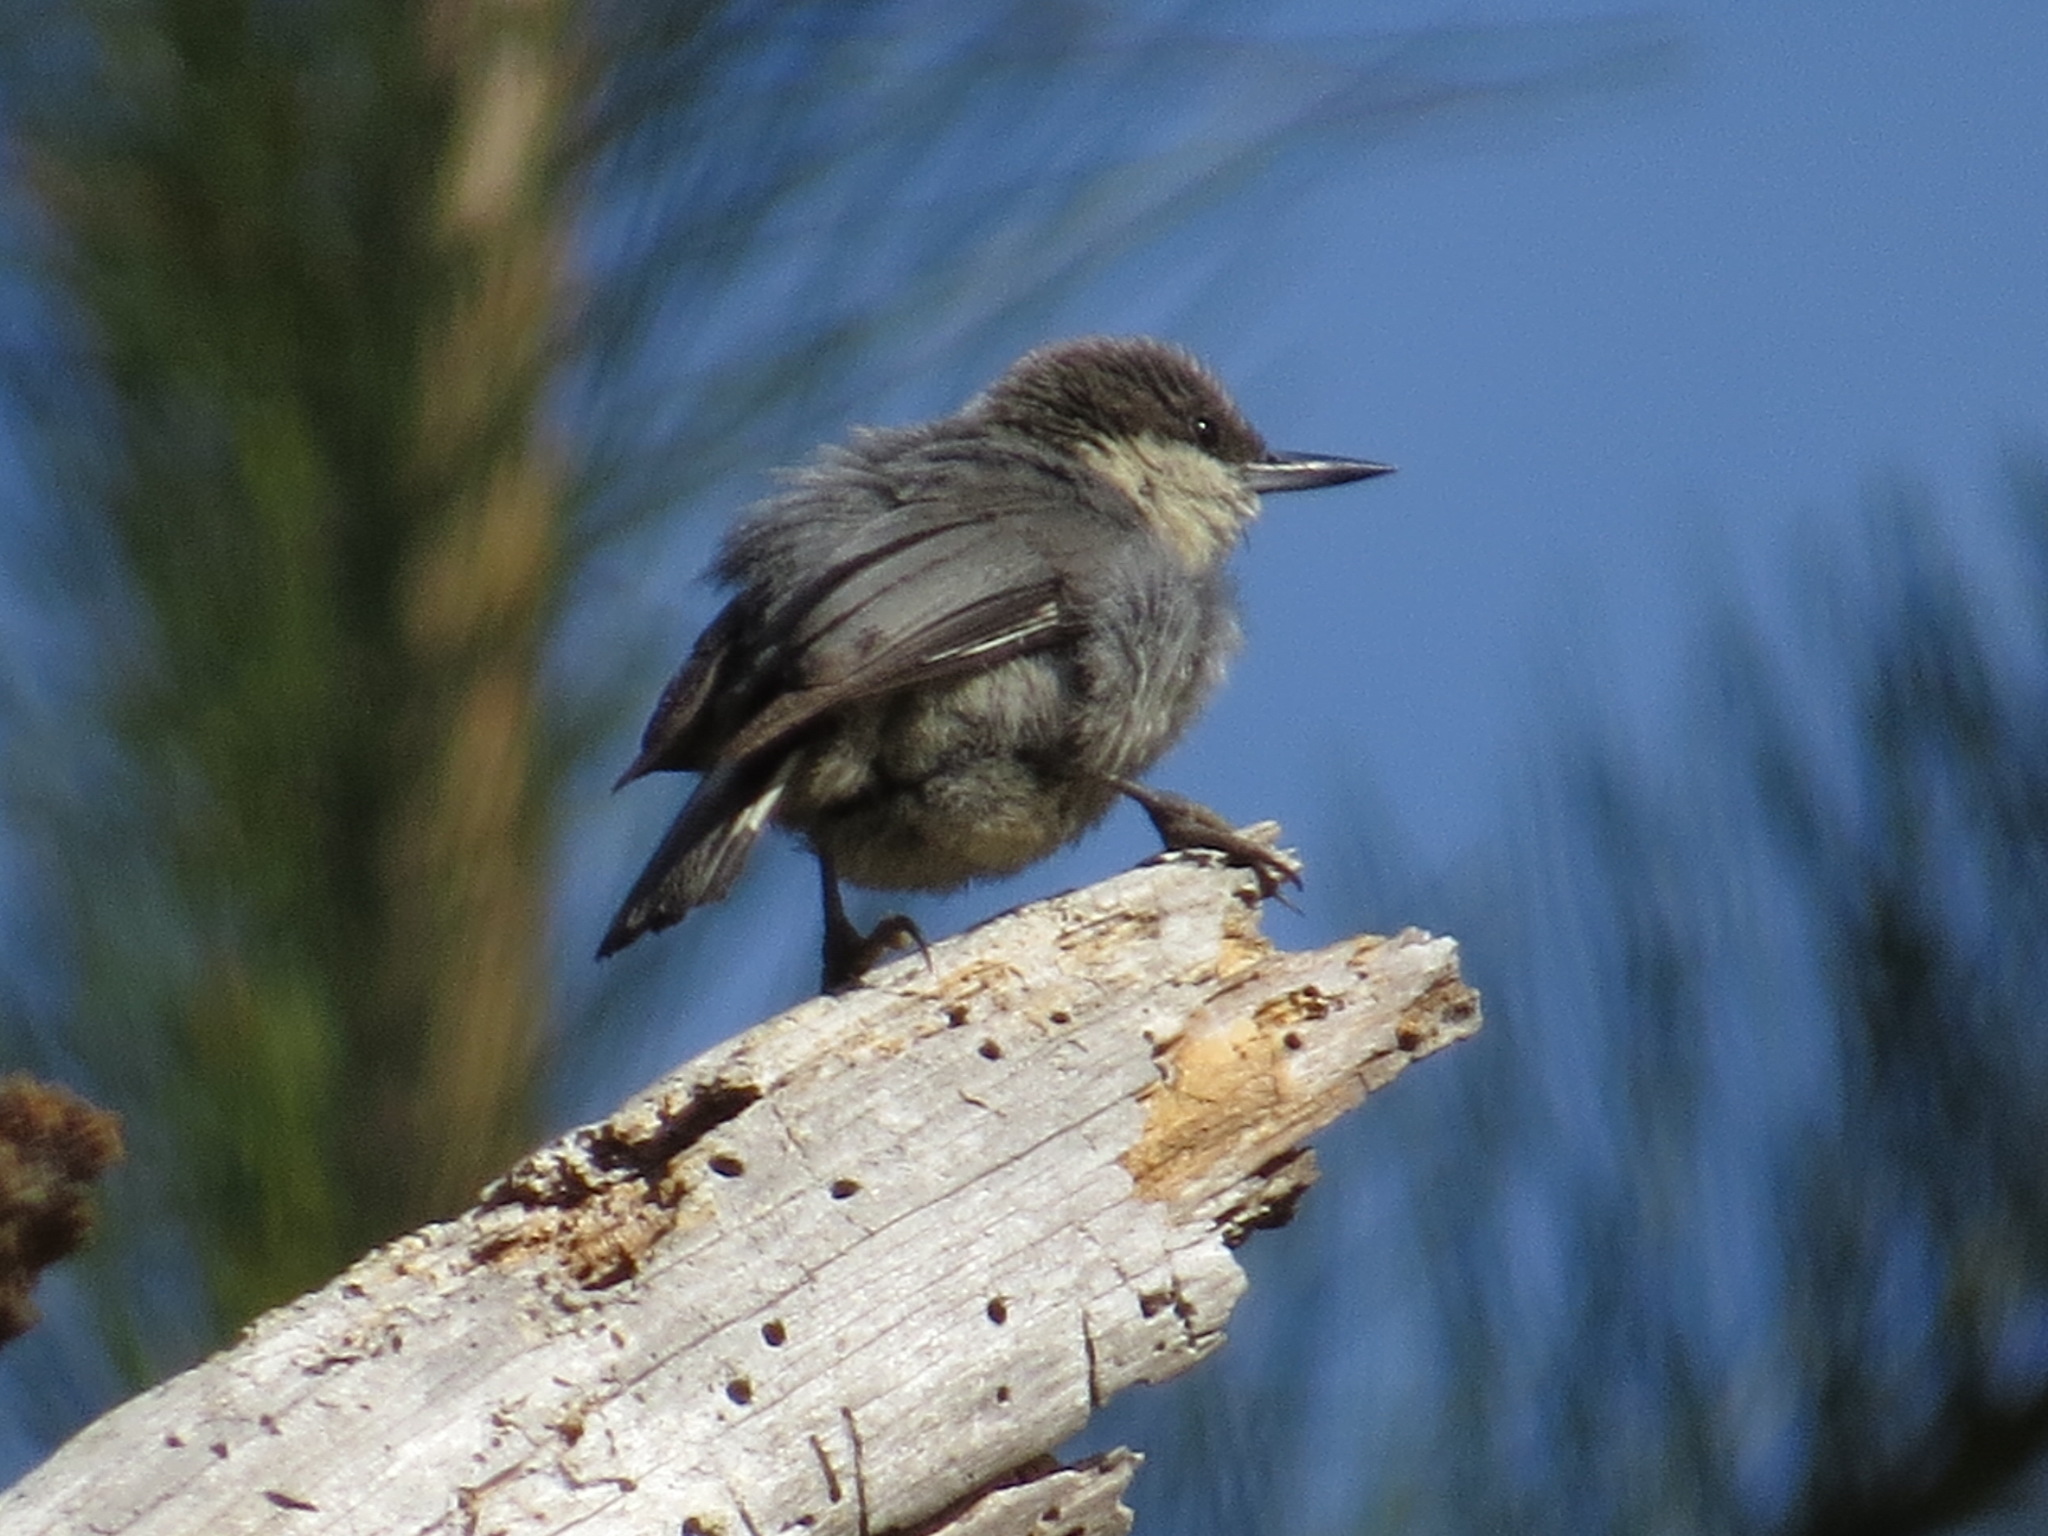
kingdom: Animalia
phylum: Chordata
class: Aves
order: Passeriformes
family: Sittidae
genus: Sitta
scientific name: Sitta pygmaea
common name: Pygmy nuthatch
